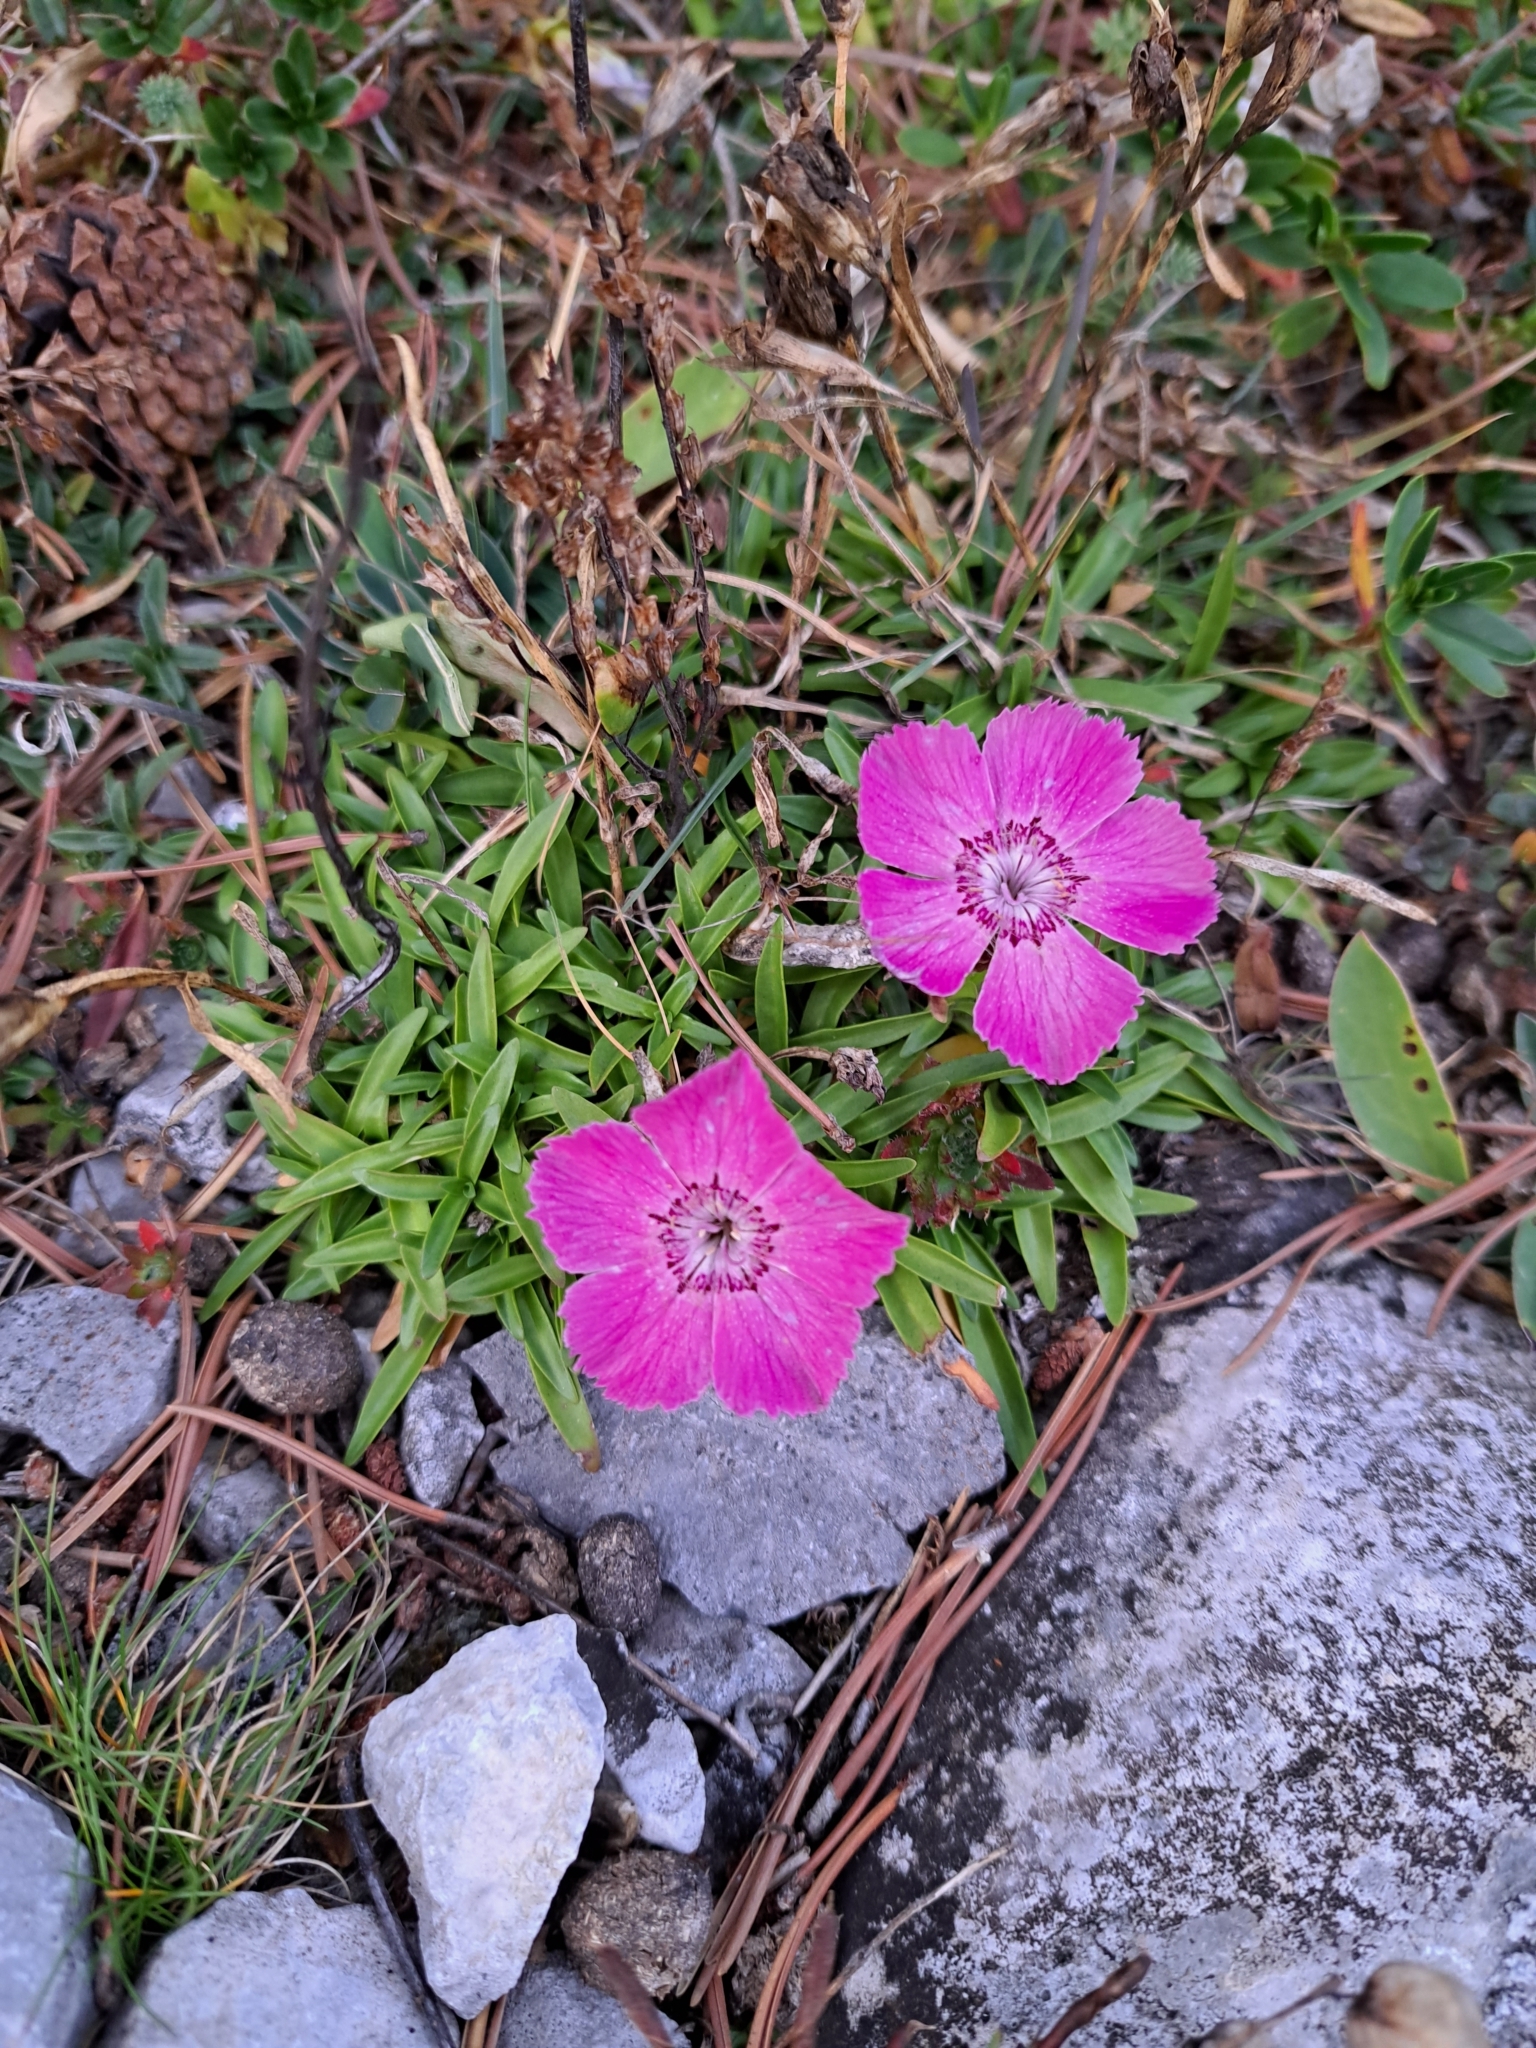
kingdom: Plantae
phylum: Tracheophyta
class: Magnoliopsida
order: Caryophyllales
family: Caryophyllaceae
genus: Dianthus
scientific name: Dianthus alpinus
